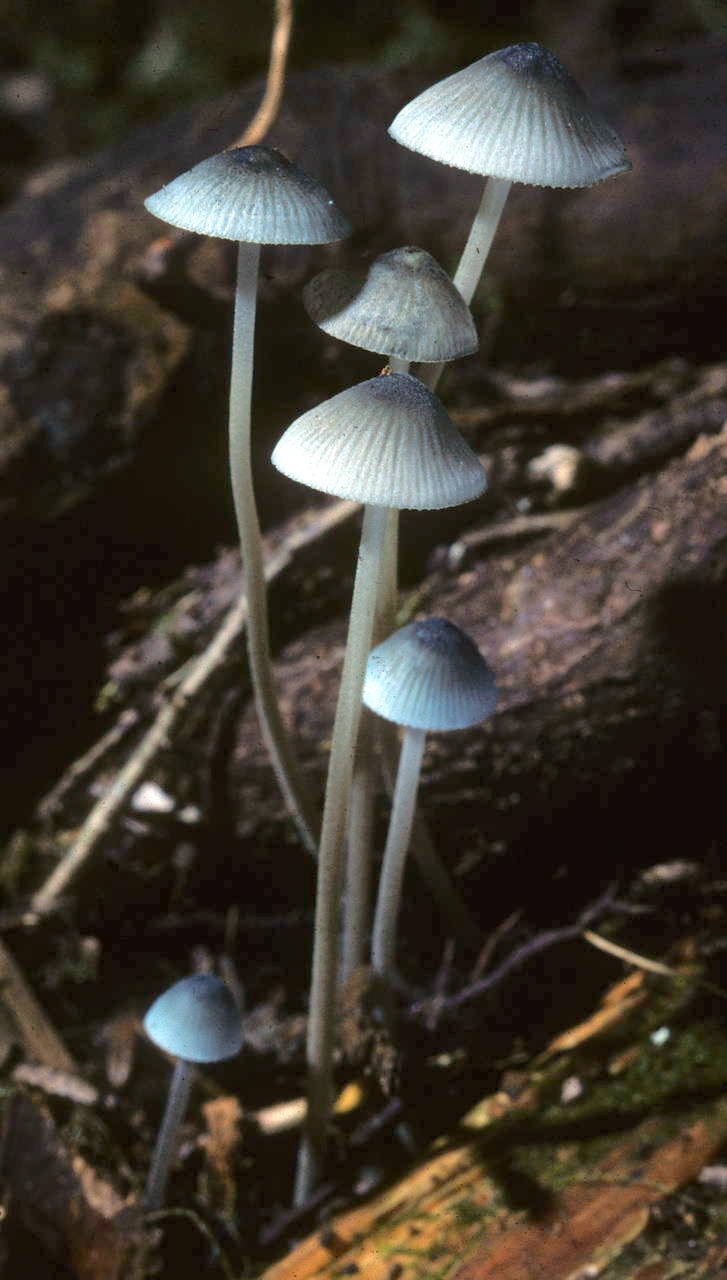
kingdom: Fungi
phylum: Basidiomycota
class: Agaricomycetes
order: Agaricales
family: Mycenaceae
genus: Mycena
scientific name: Mycena amicta
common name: Coldfoot bonnet
